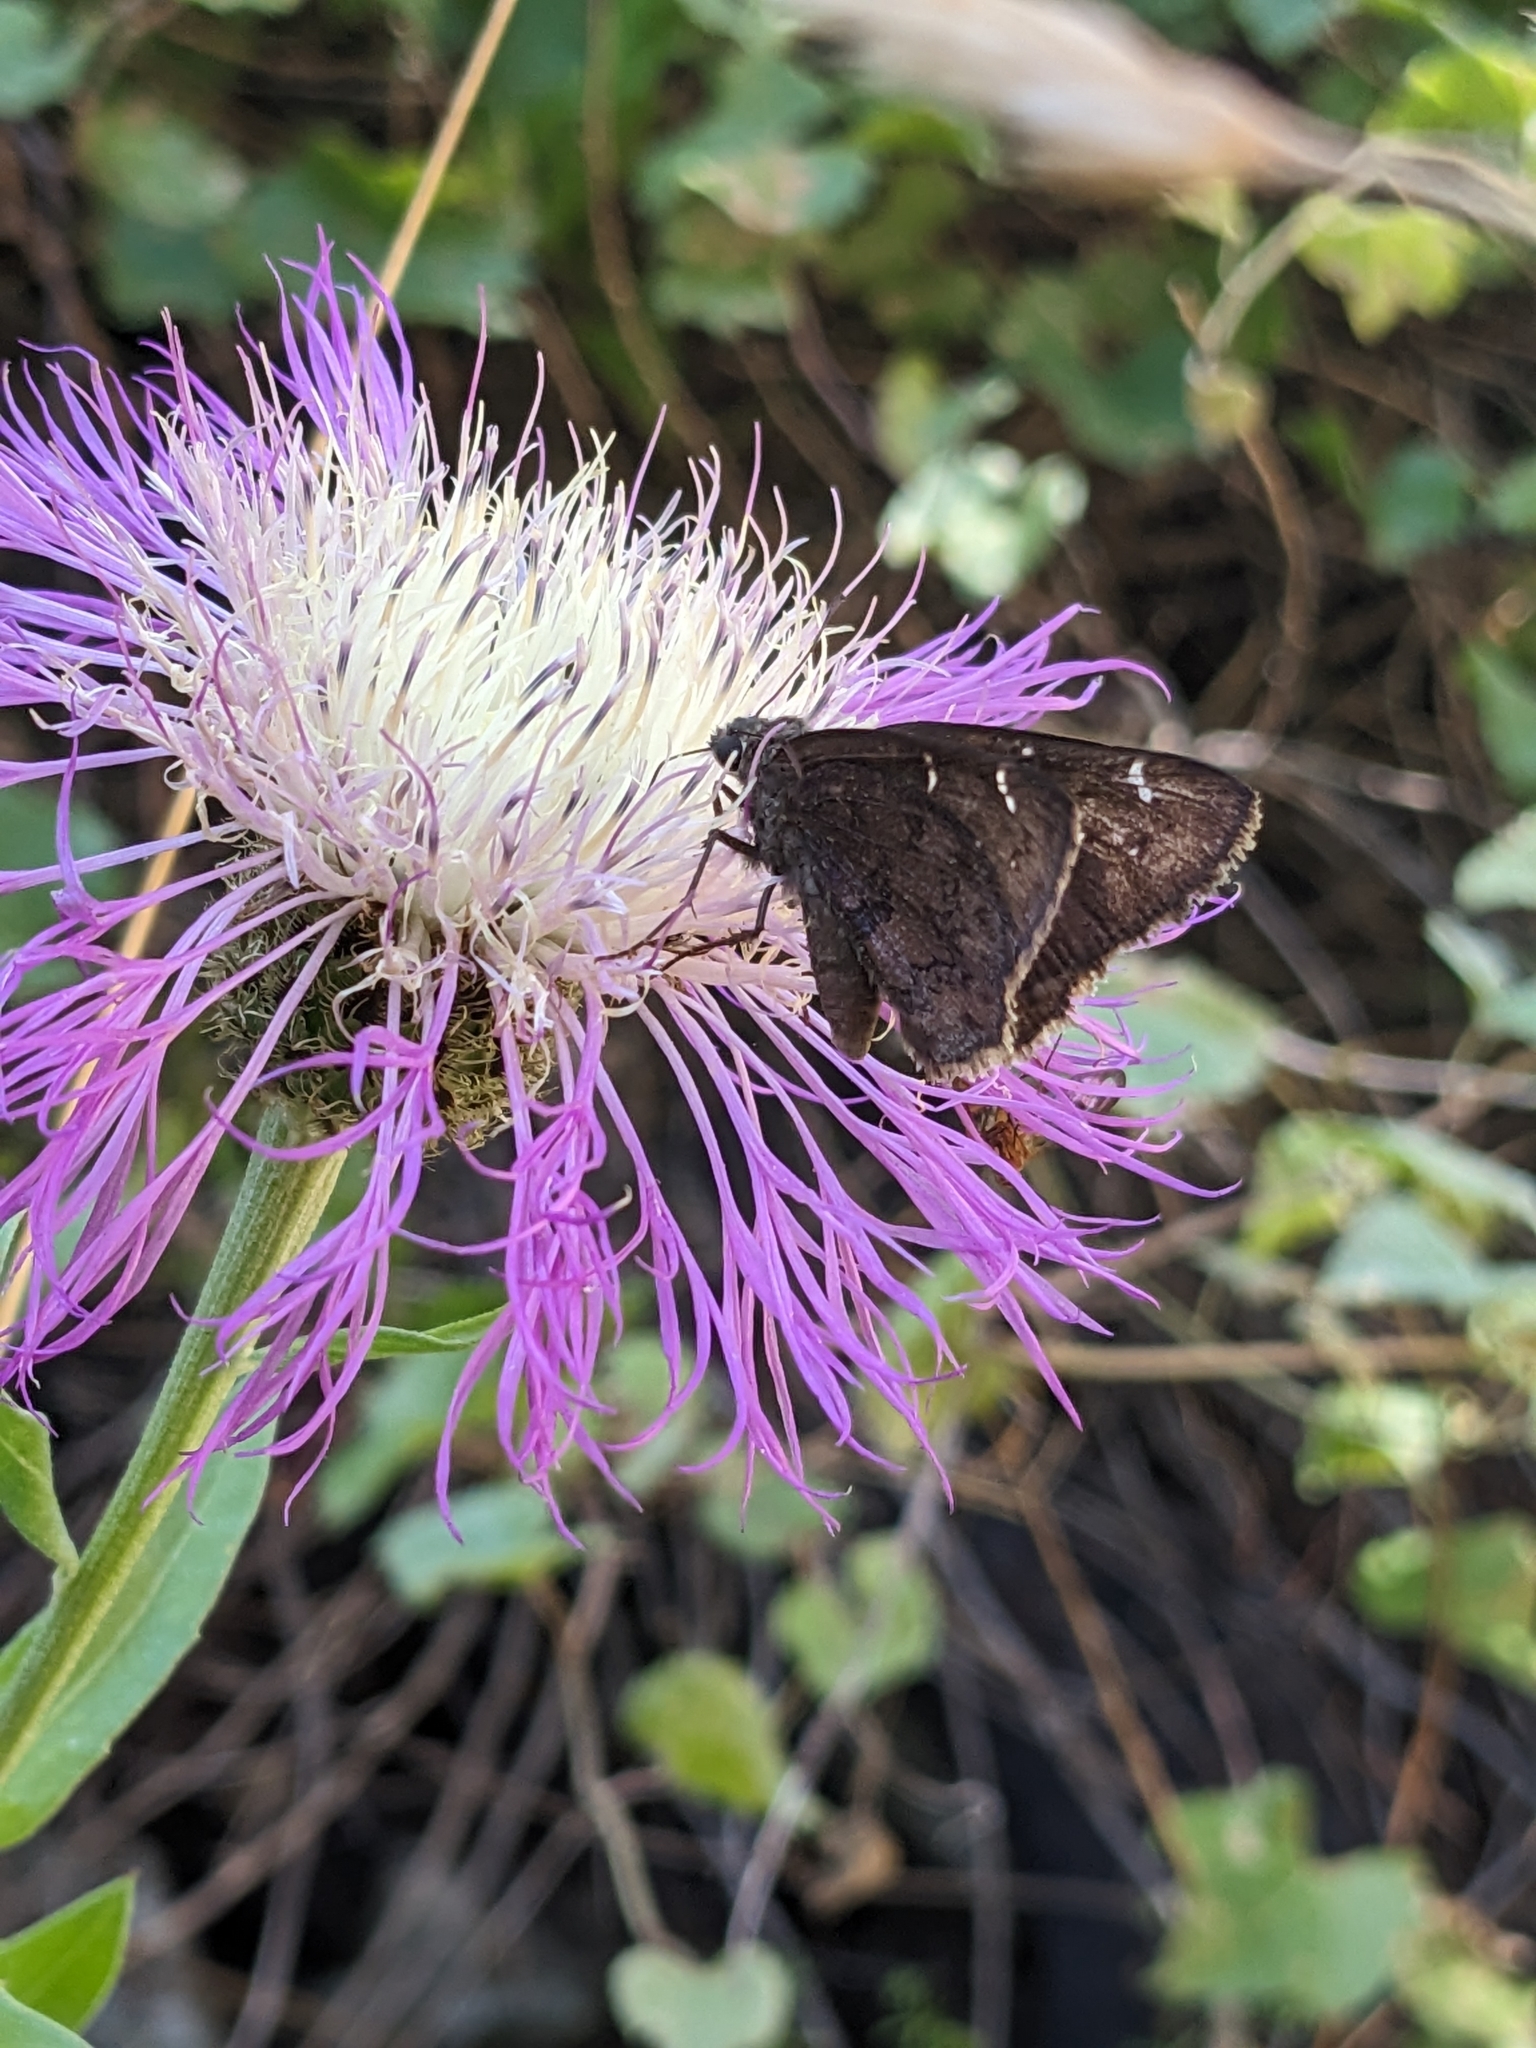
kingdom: Animalia
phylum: Arthropoda
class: Insecta
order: Lepidoptera
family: Hesperiidae
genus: Thorybes
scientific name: Thorybes pylades
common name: Northern cloudywing
